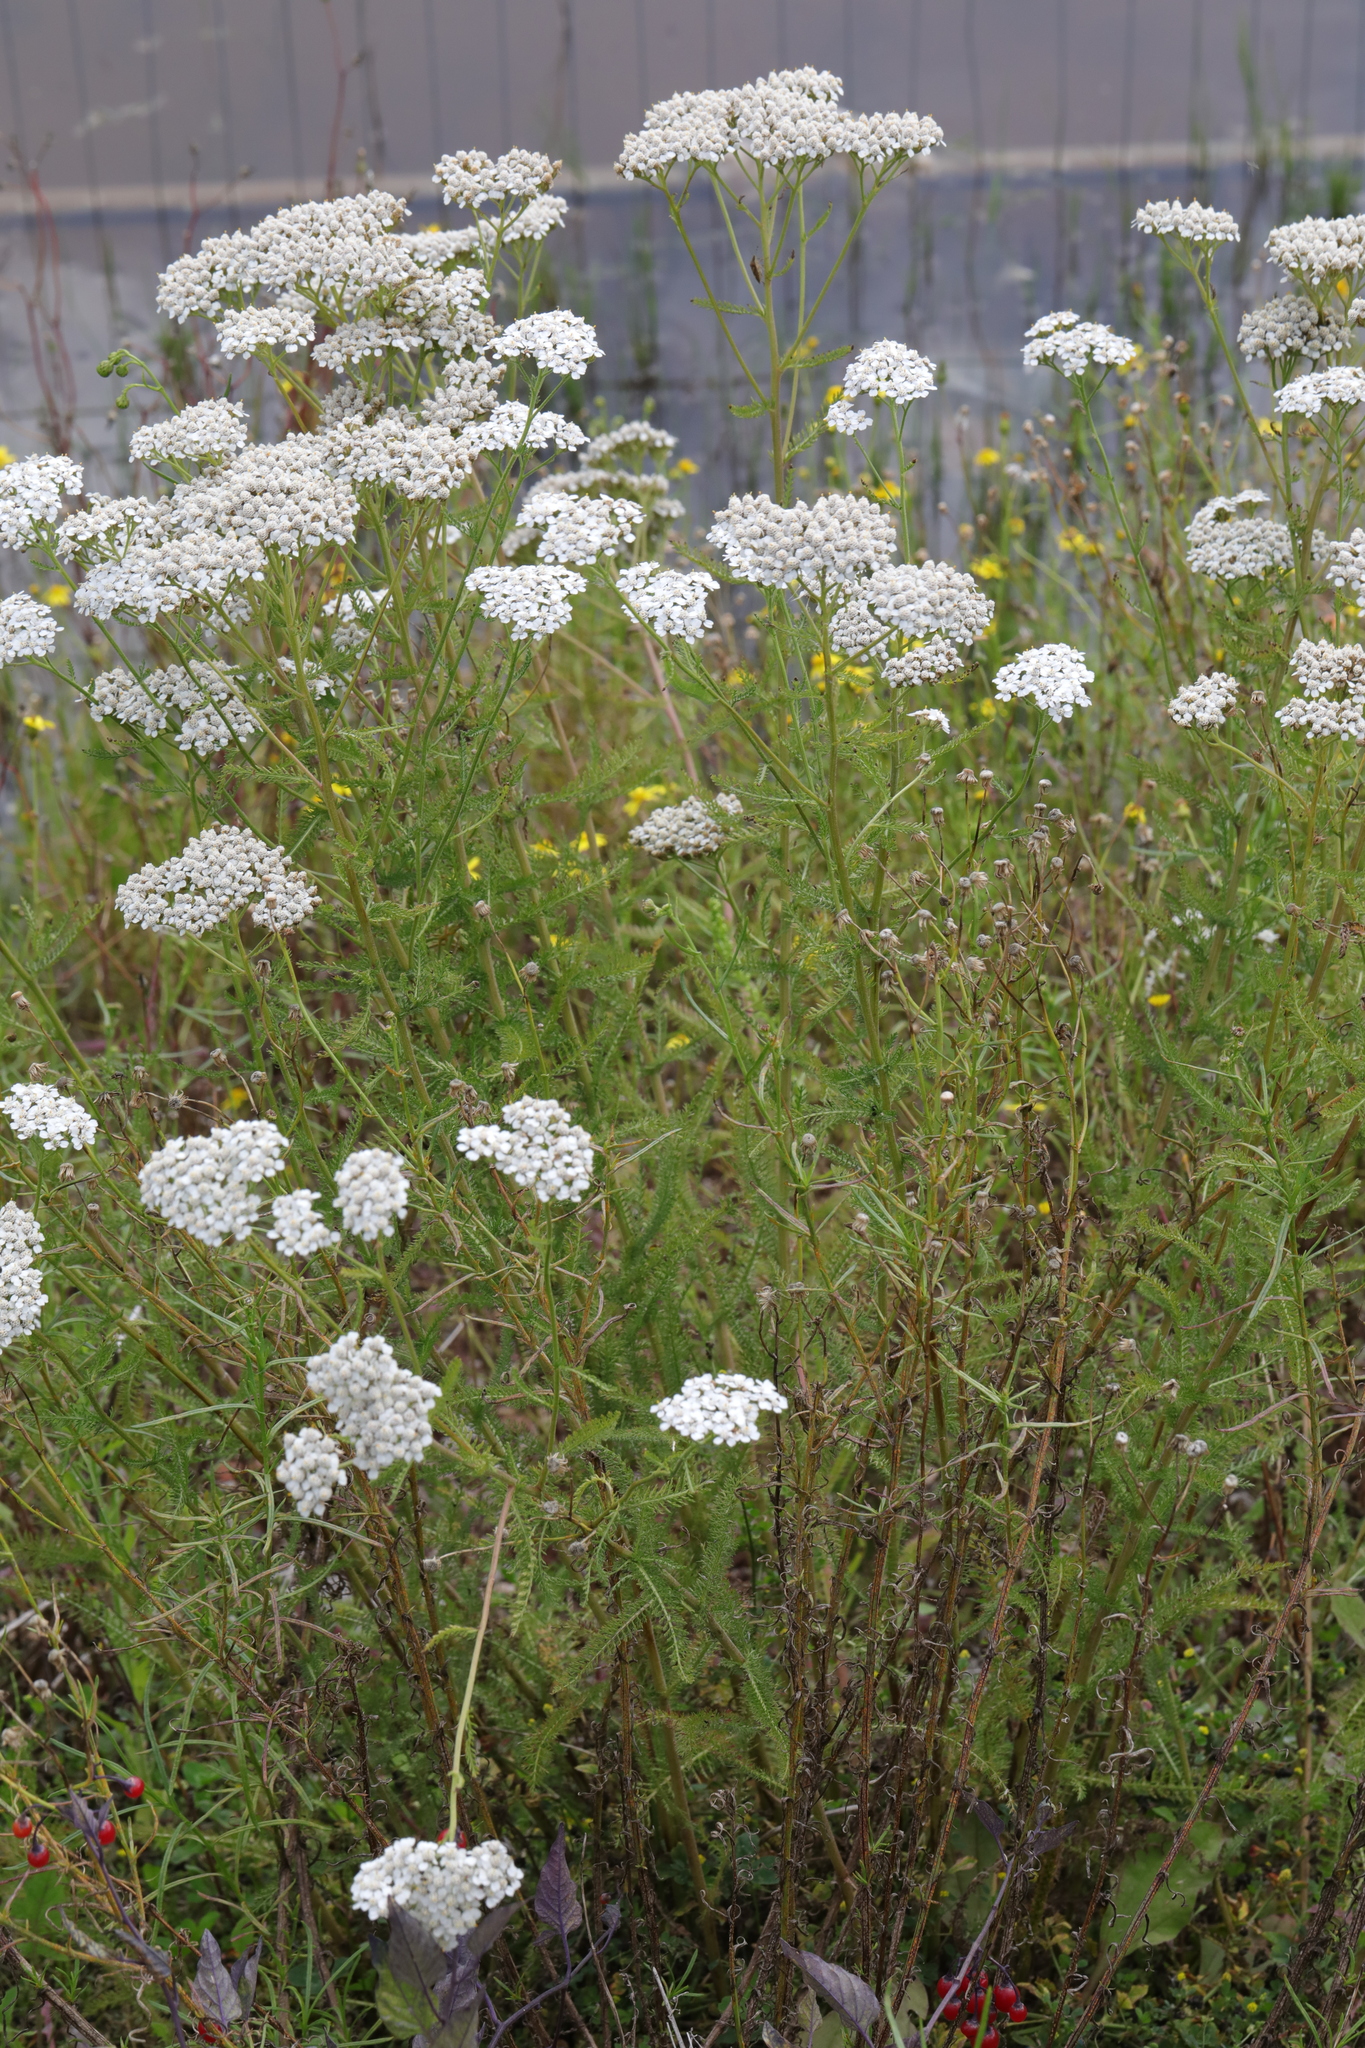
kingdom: Plantae
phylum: Tracheophyta
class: Magnoliopsida
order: Asterales
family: Asteraceae
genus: Achillea
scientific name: Achillea millefolium
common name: Yarrow
